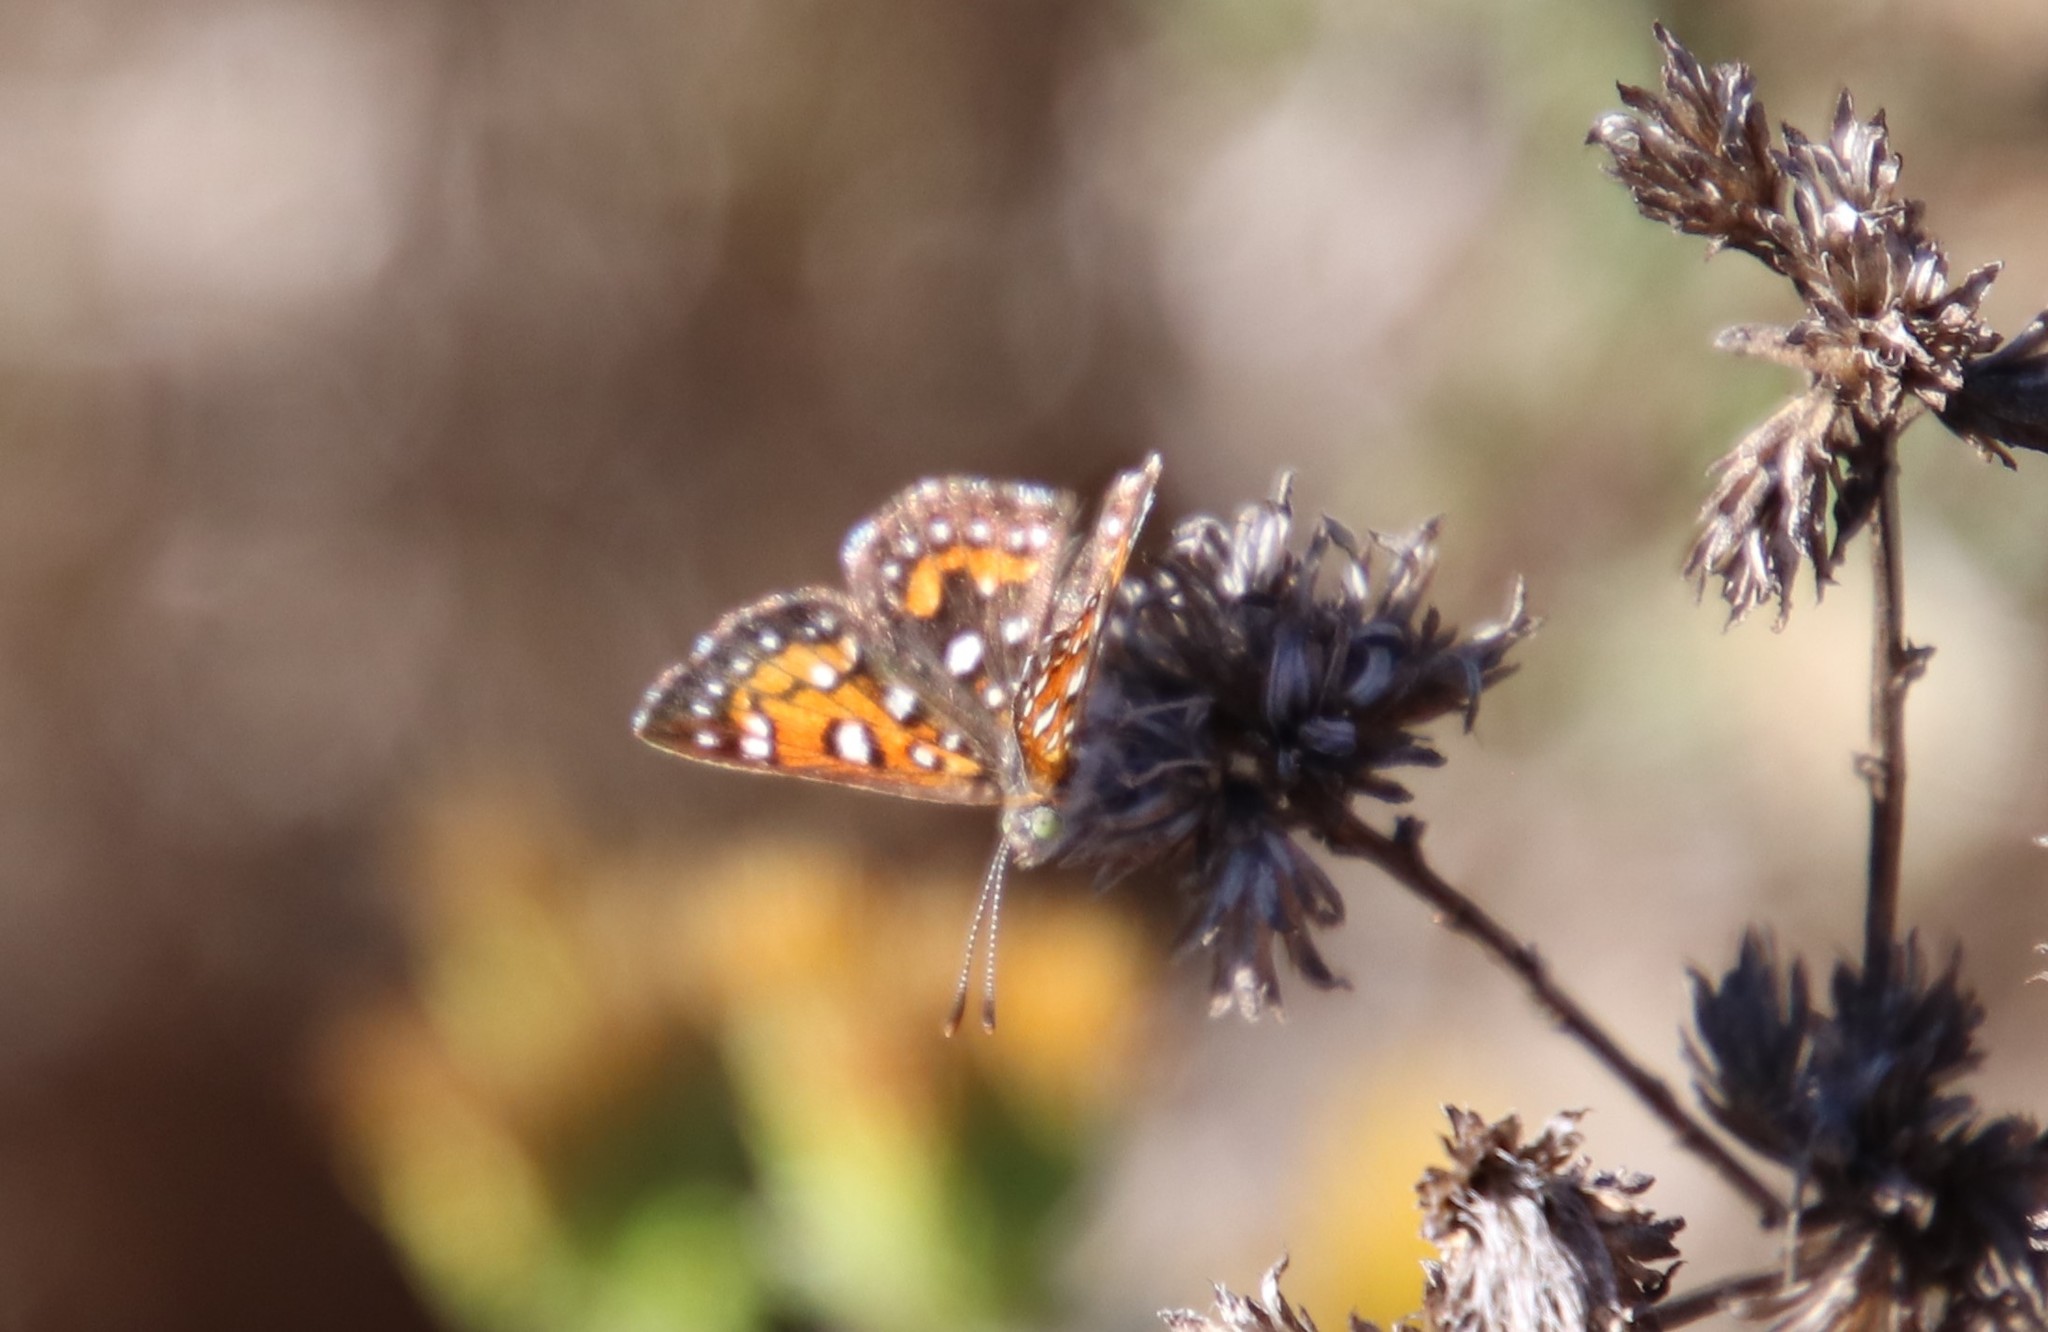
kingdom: Animalia
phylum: Arthropoda
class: Insecta
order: Lepidoptera
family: Riodinidae
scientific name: Riodinidae
